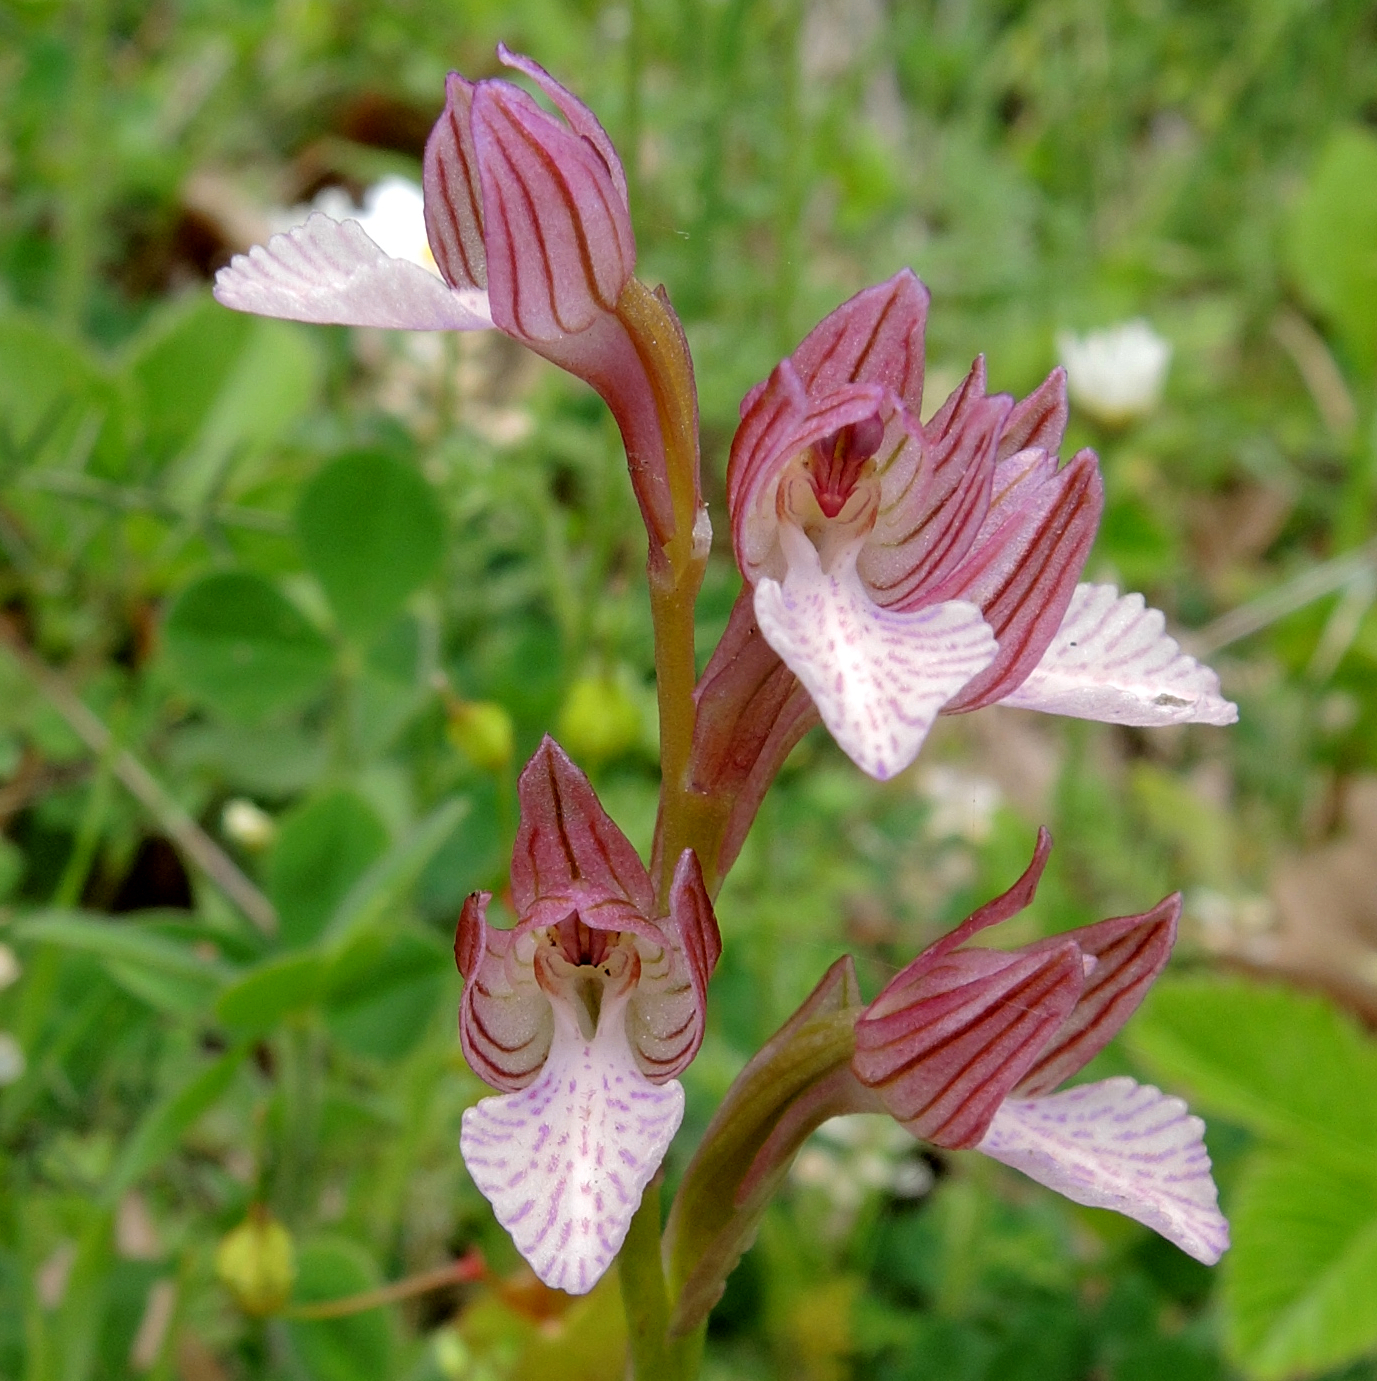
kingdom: Plantae
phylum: Tracheophyta
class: Liliopsida
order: Asparagales
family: Orchidaceae
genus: Anacamptis
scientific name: Anacamptis papilionacea
